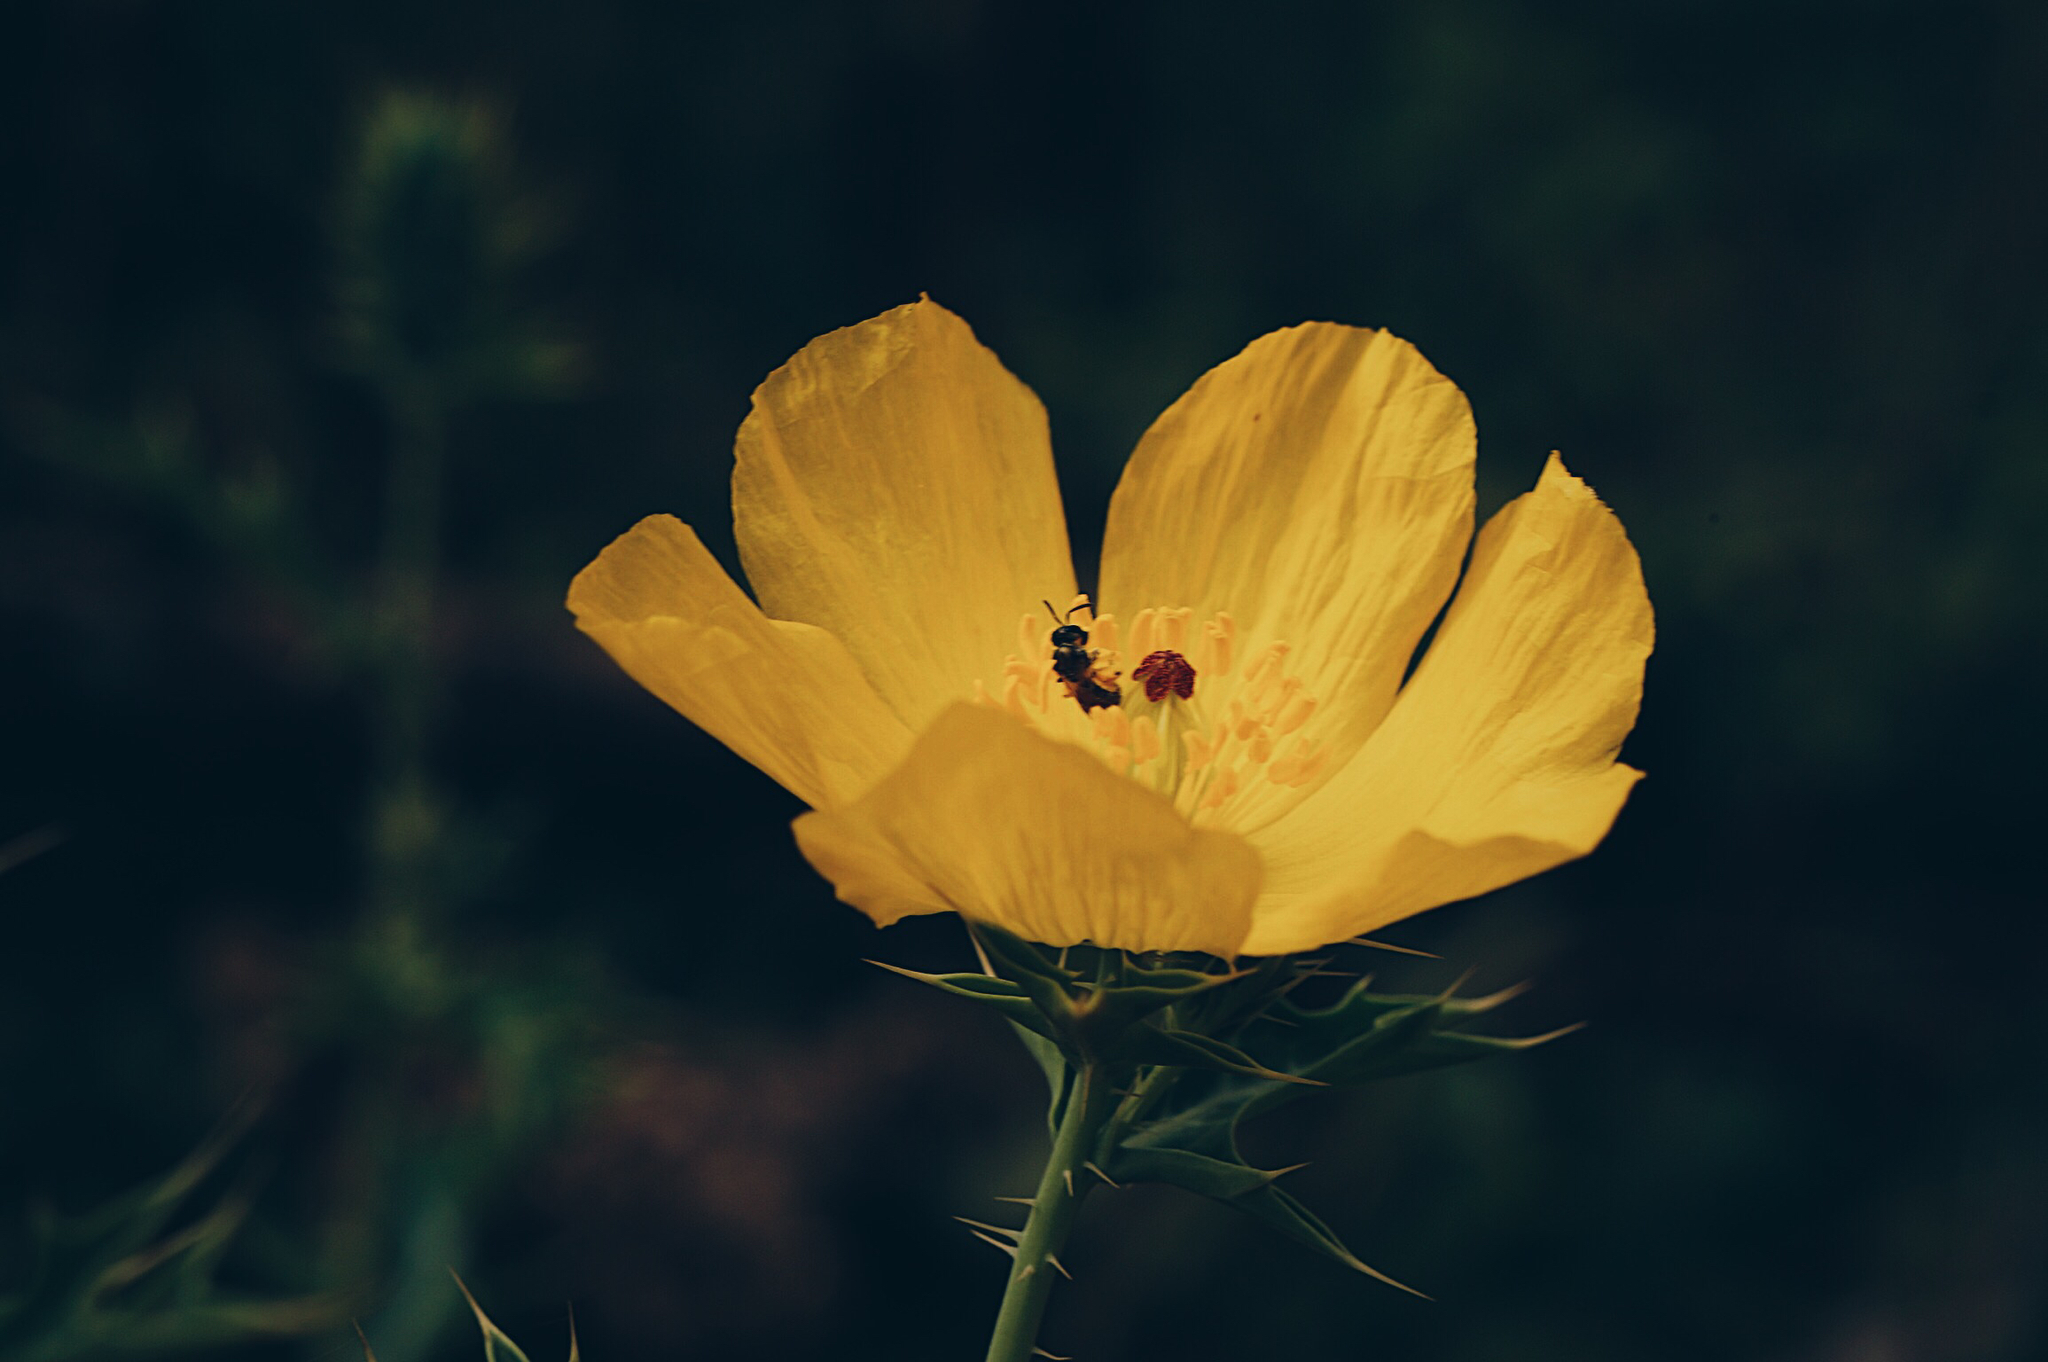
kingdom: Plantae
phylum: Tracheophyta
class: Magnoliopsida
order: Ranunculales
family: Papaveraceae
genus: Argemone
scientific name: Argemone mexicana
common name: Mexican poppy
